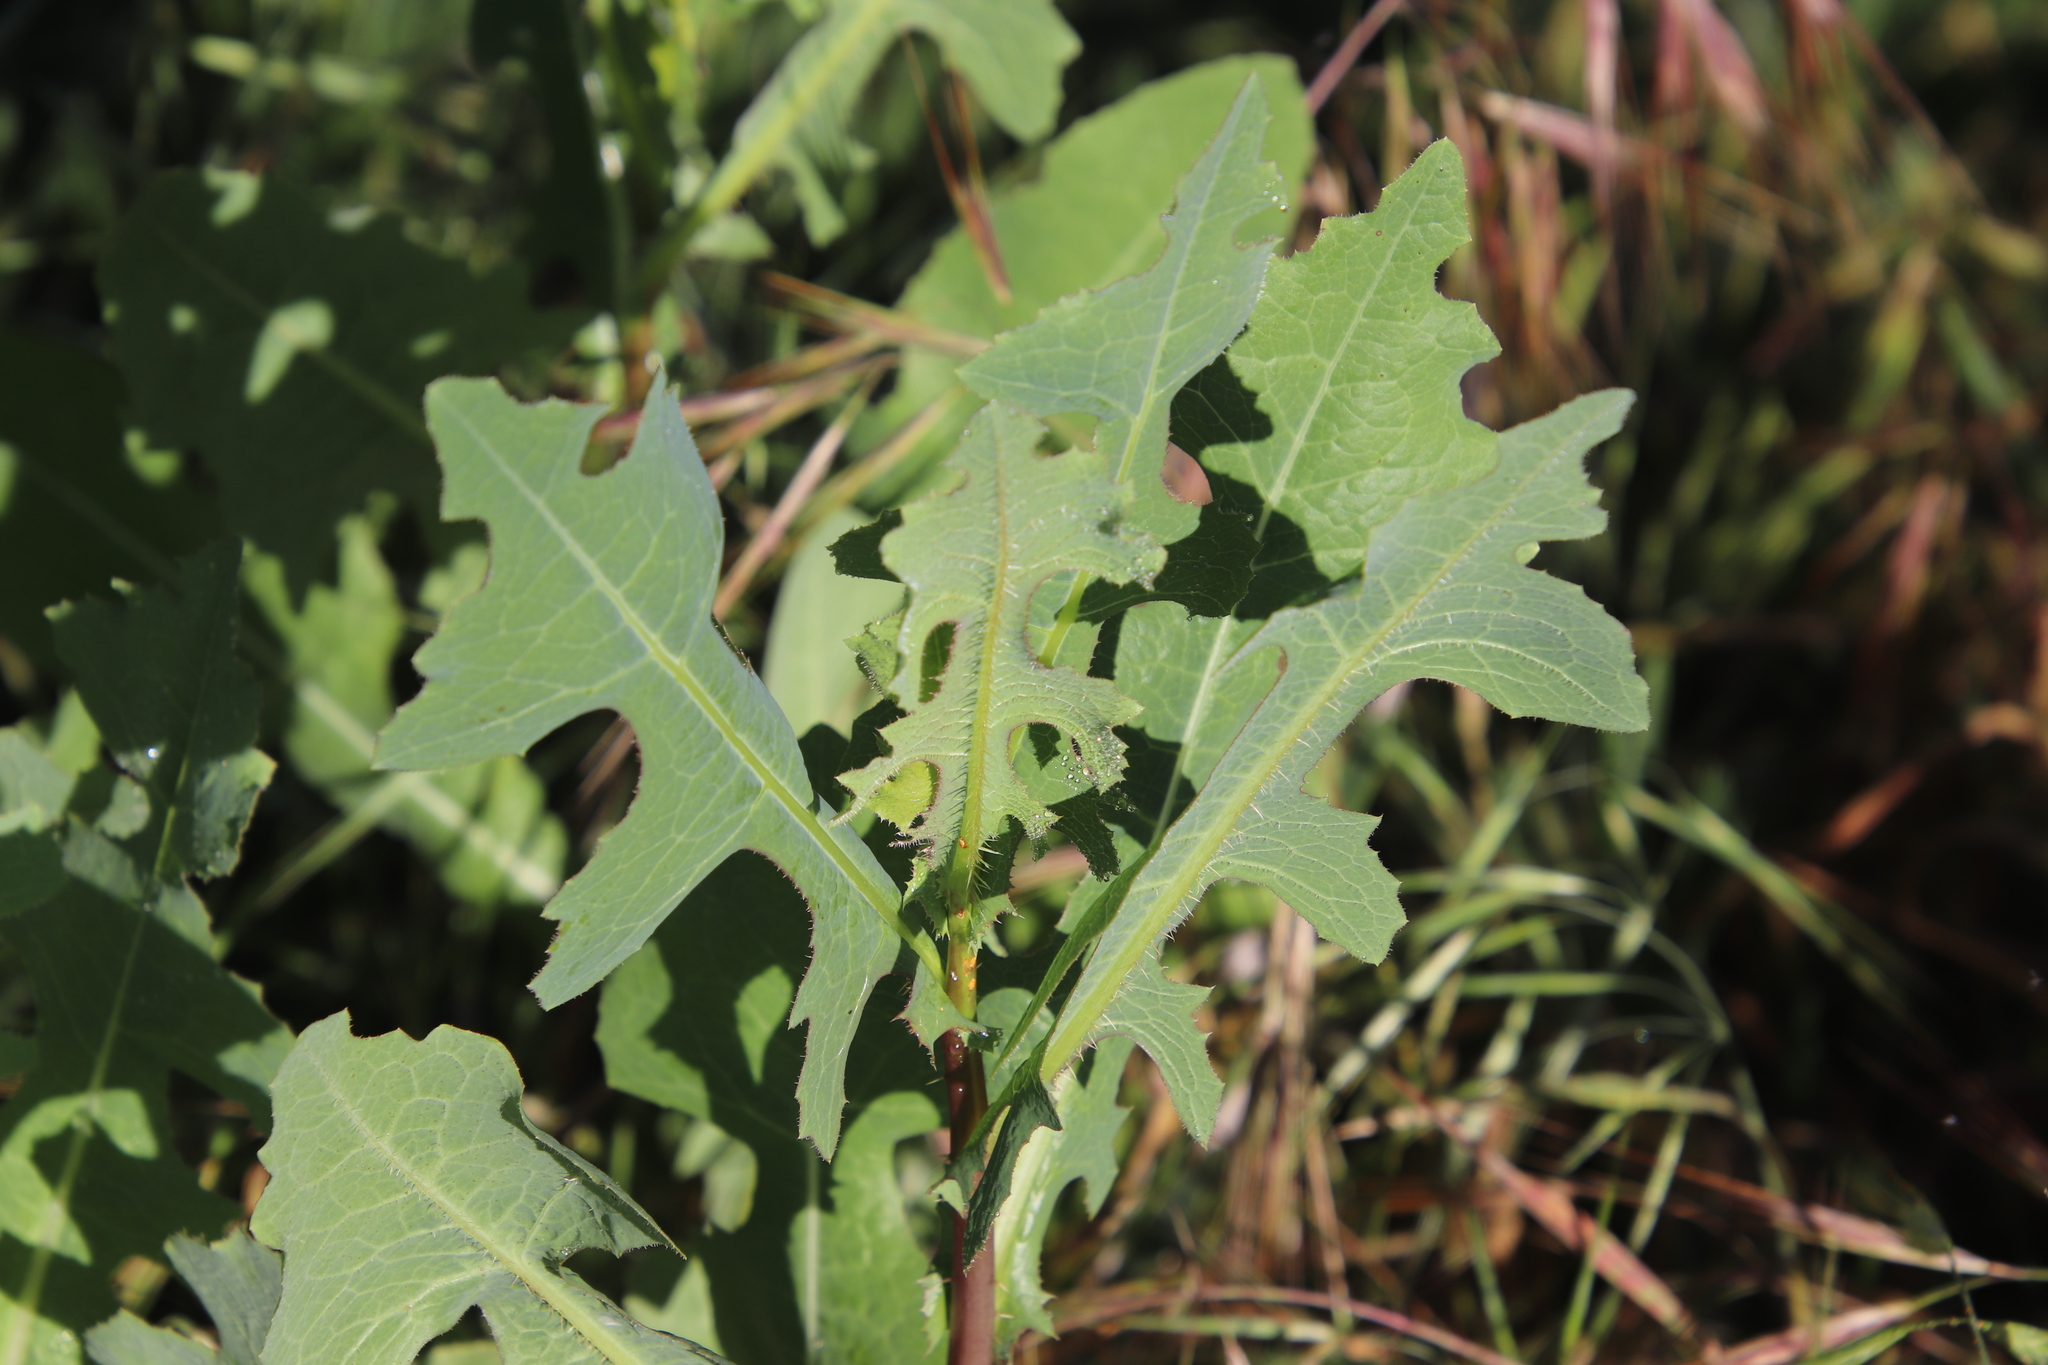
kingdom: Plantae
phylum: Tracheophyta
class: Magnoliopsida
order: Asterales
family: Asteraceae
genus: Lactuca
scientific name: Lactuca serriola
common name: Prickly lettuce
